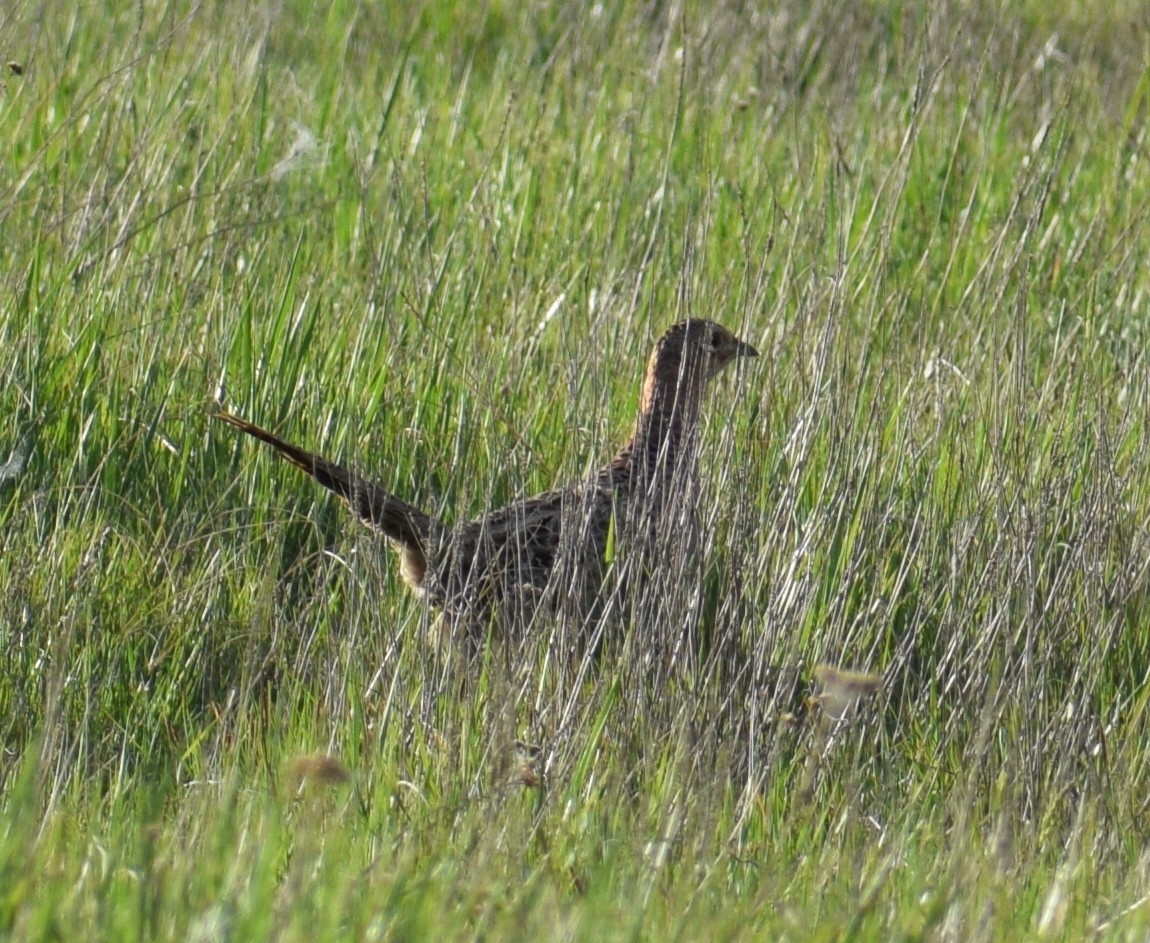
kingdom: Animalia
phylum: Chordata
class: Aves
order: Galliformes
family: Phasianidae
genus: Phasianus
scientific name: Phasianus colchicus
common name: Common pheasant
